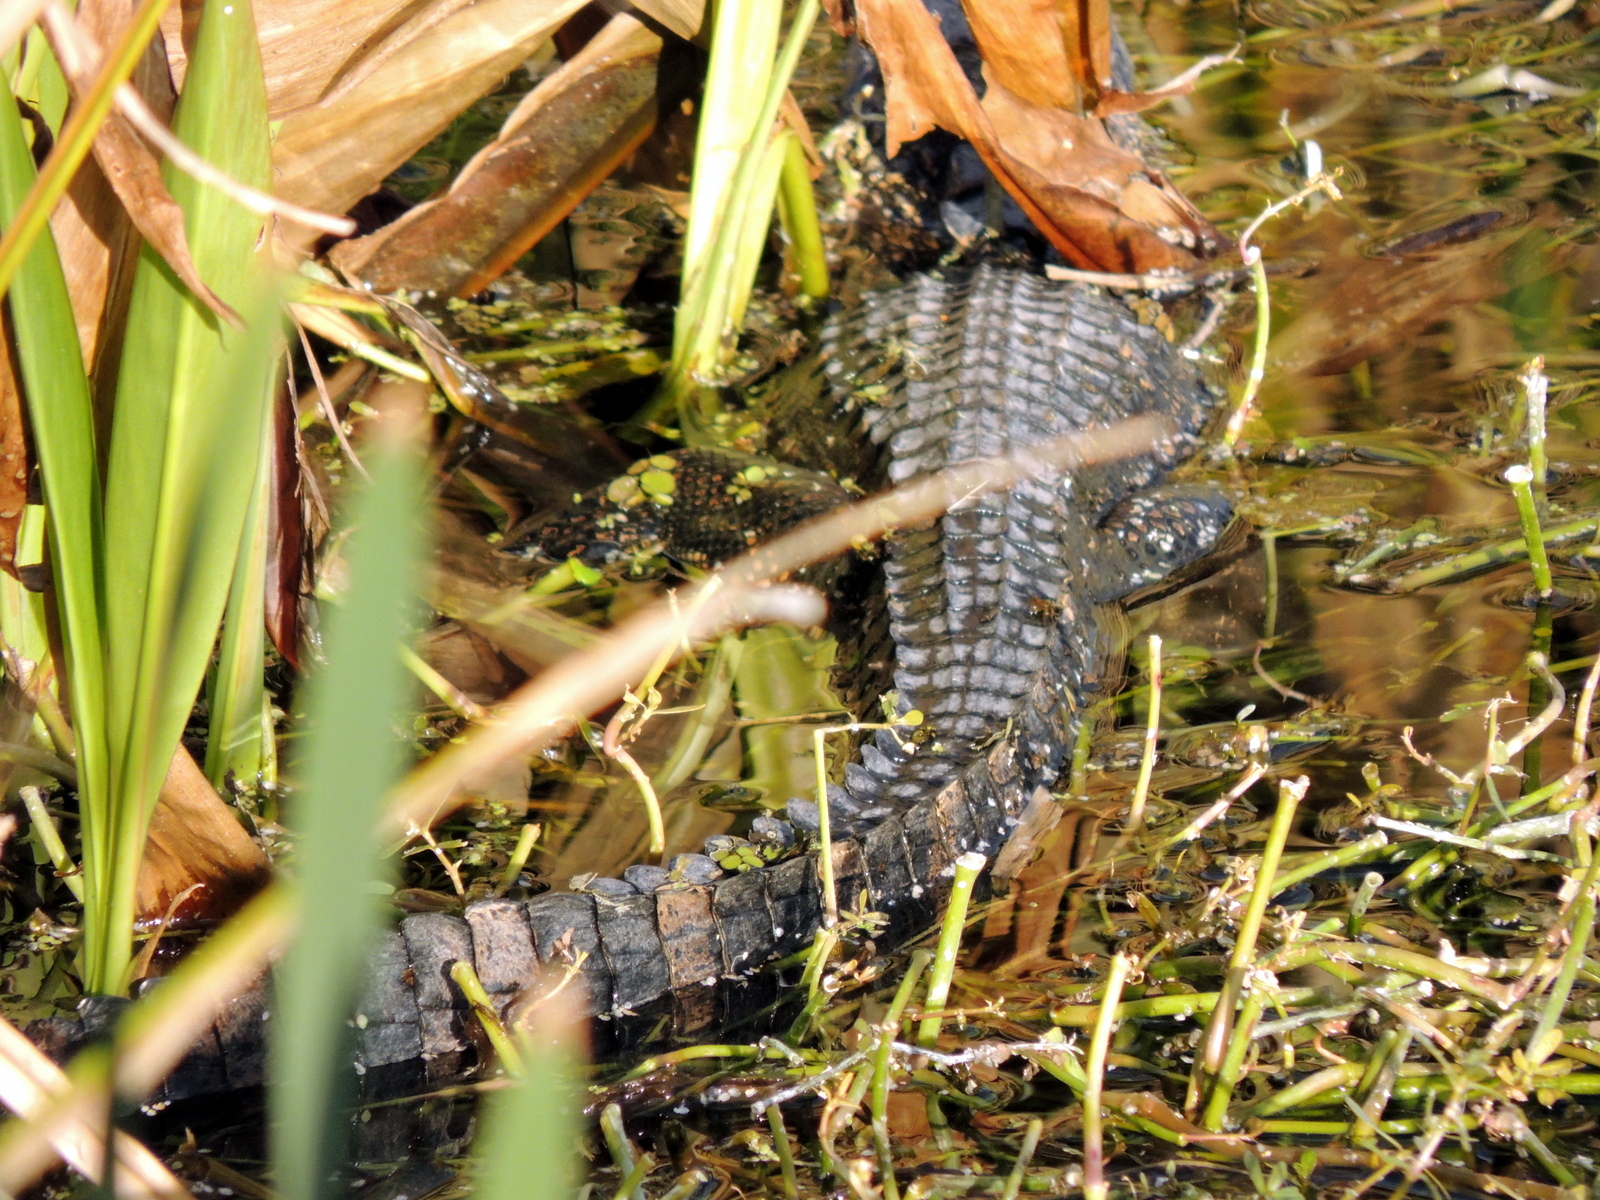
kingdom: Animalia
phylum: Chordata
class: Crocodylia
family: Alligatoridae
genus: Alligator
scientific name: Alligator mississippiensis
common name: American alligator
